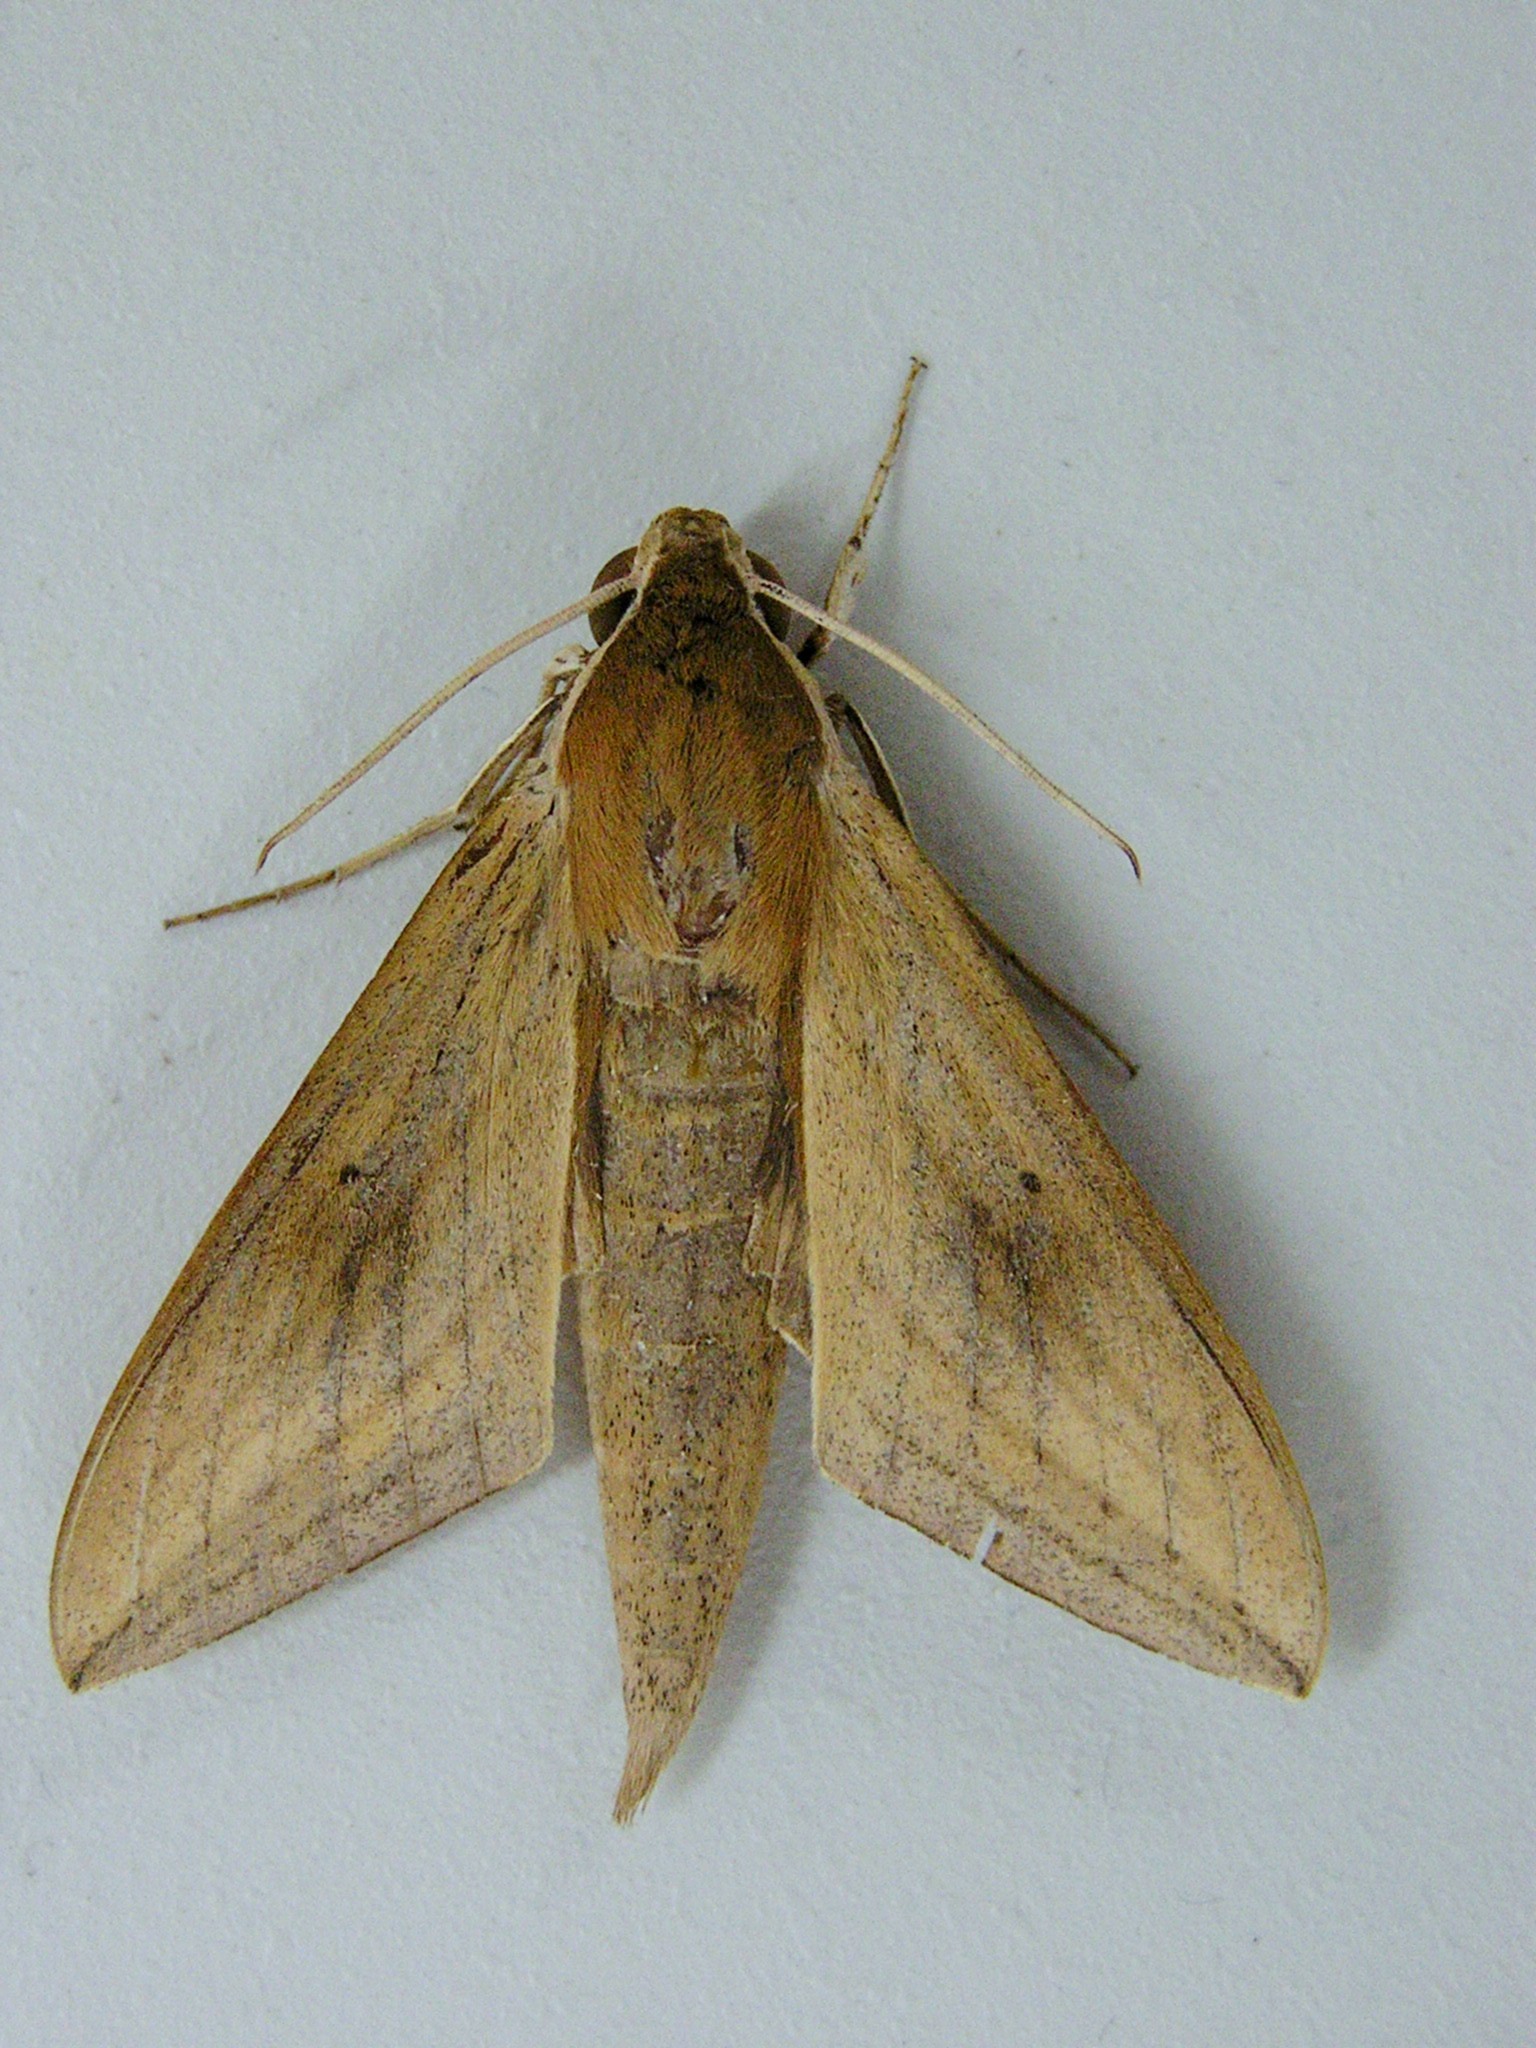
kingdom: Animalia
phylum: Arthropoda
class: Insecta
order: Lepidoptera
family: Sphingidae
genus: Theretra
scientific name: Theretra rhesus
